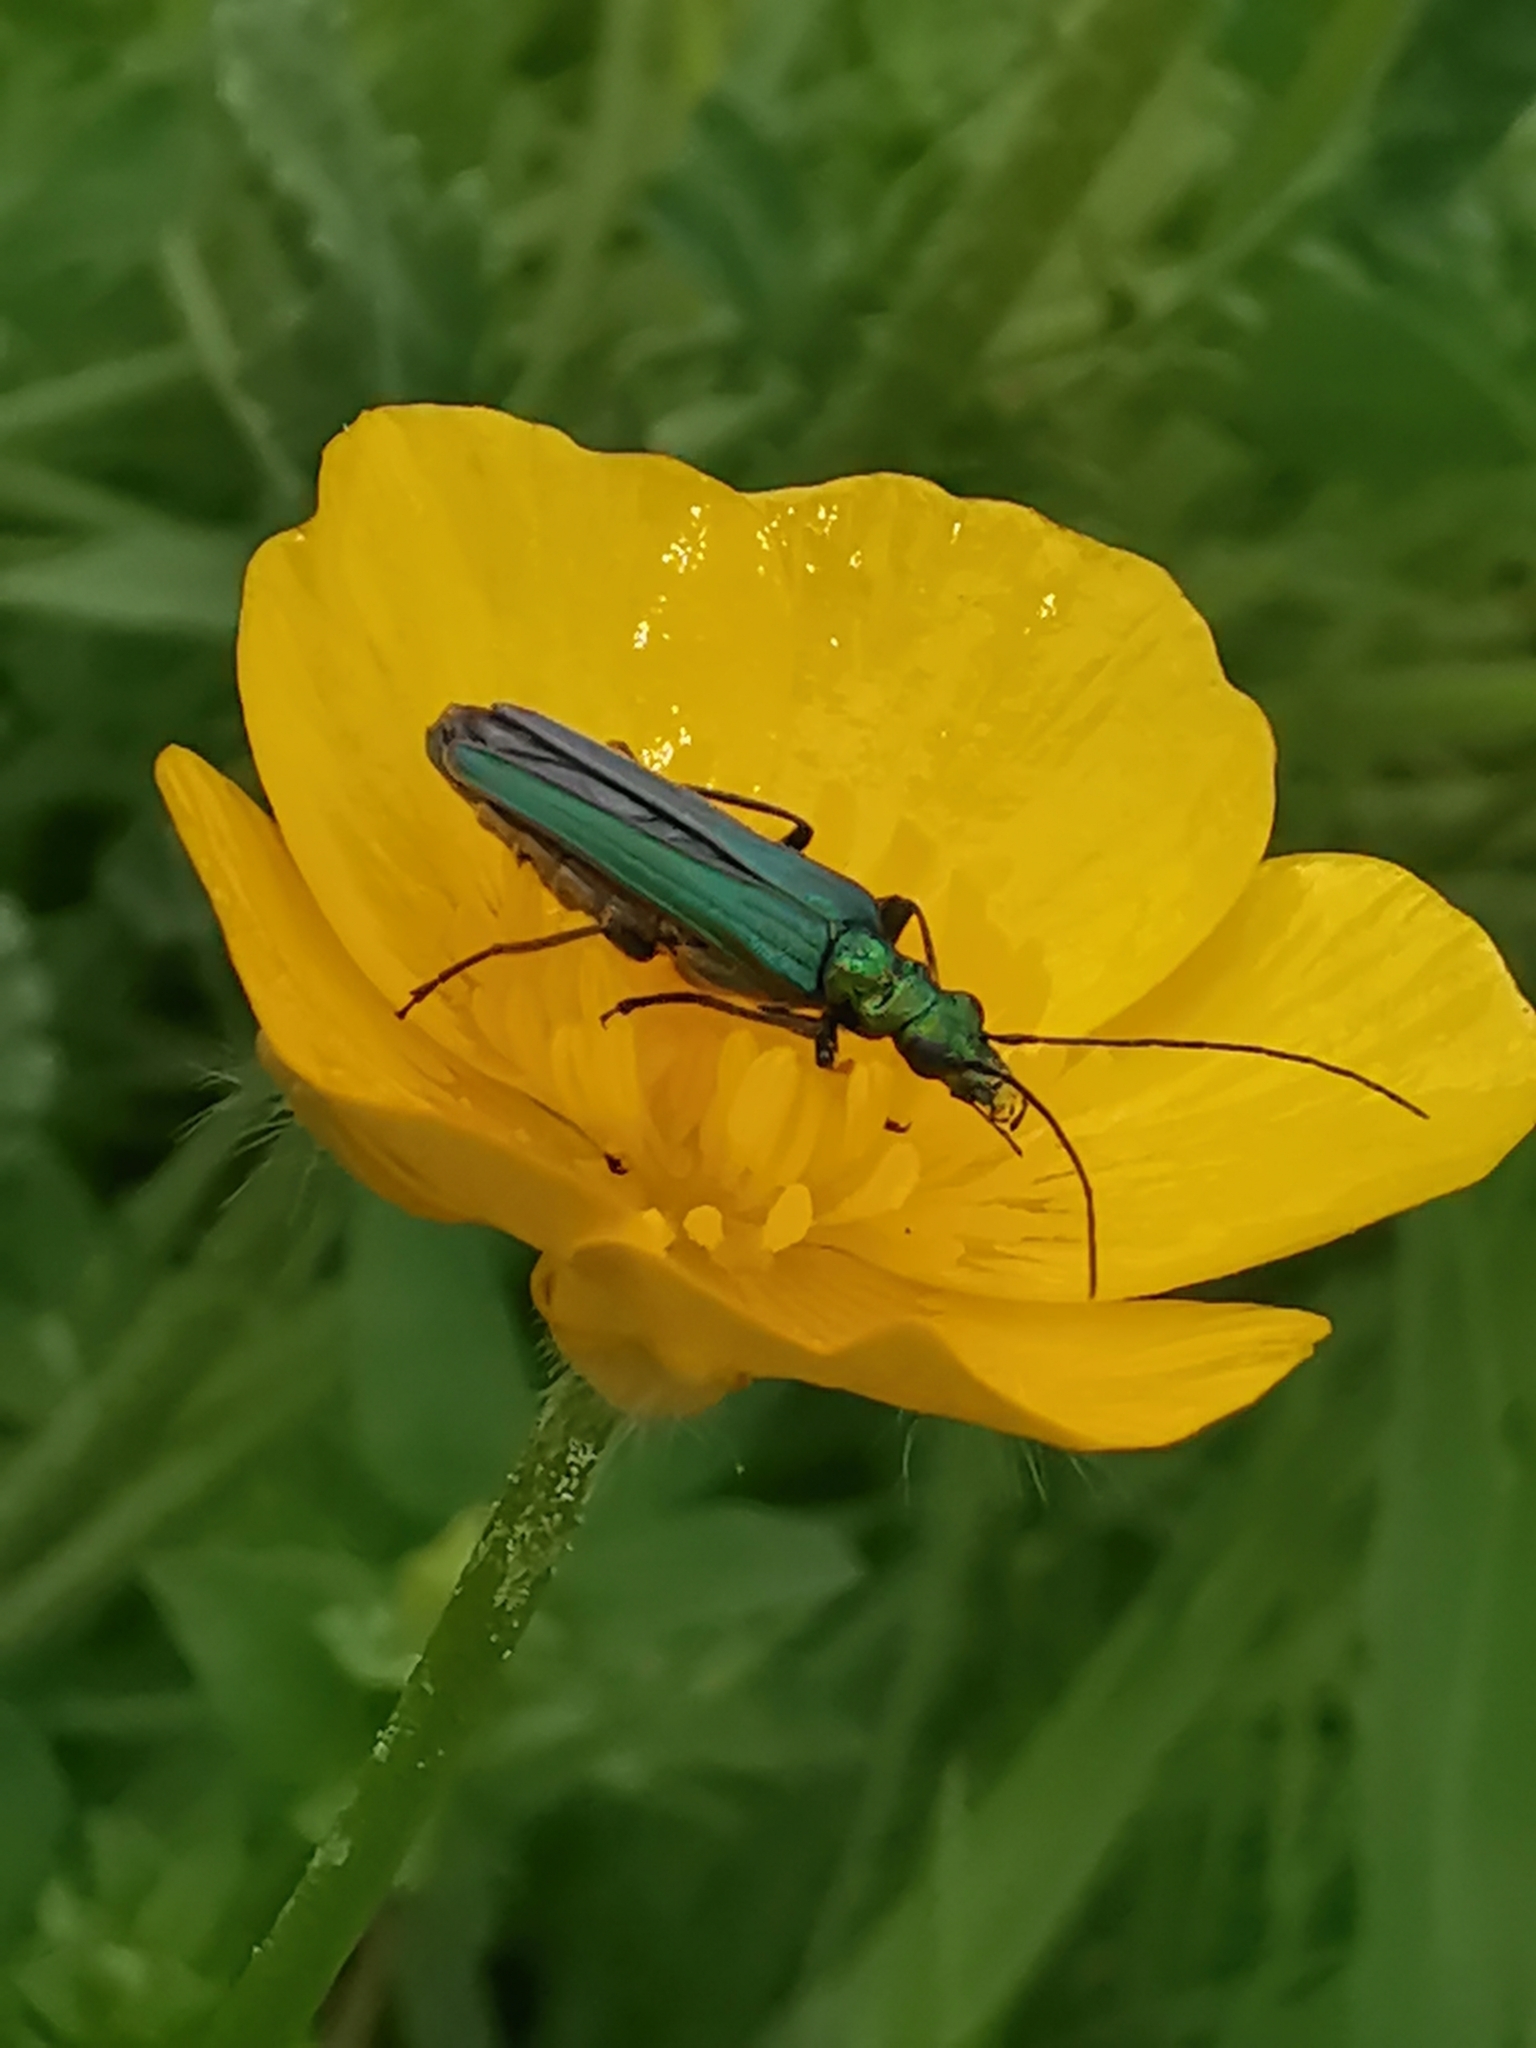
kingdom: Animalia
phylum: Arthropoda
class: Insecta
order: Coleoptera
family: Oedemeridae
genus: Oedemera
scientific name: Oedemera nobilis
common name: Swollen-thighed beetle
